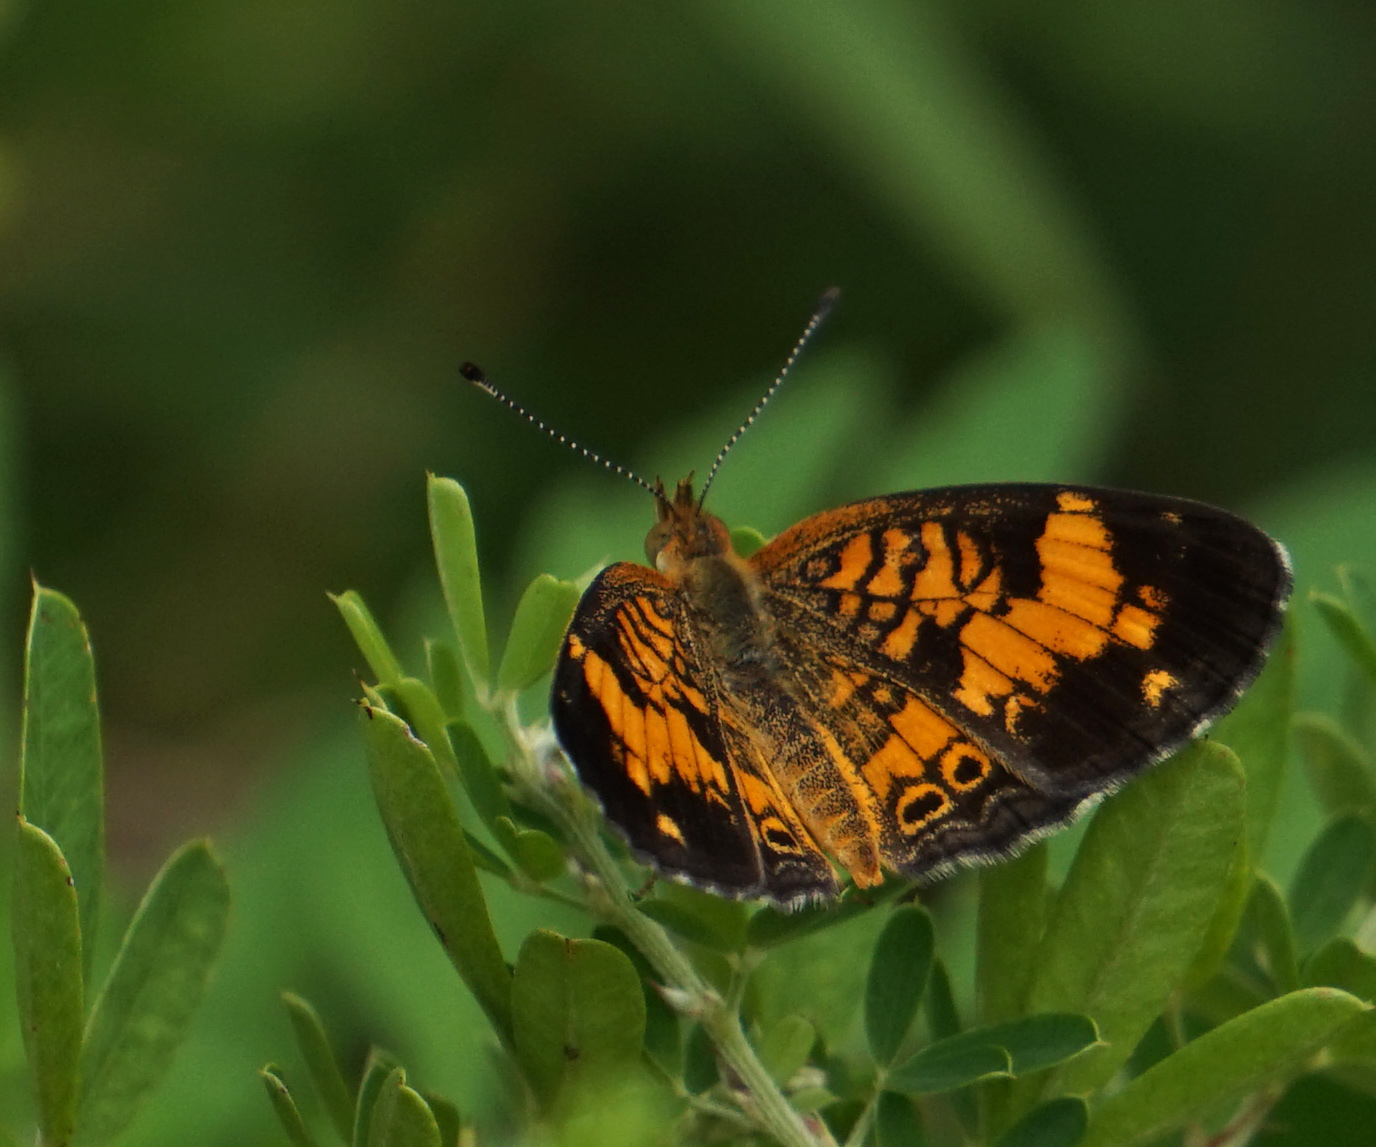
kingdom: Animalia
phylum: Arthropoda
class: Insecta
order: Lepidoptera
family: Nymphalidae
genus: Phyciodes
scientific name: Phyciodes tharos
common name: Pearl crescent
